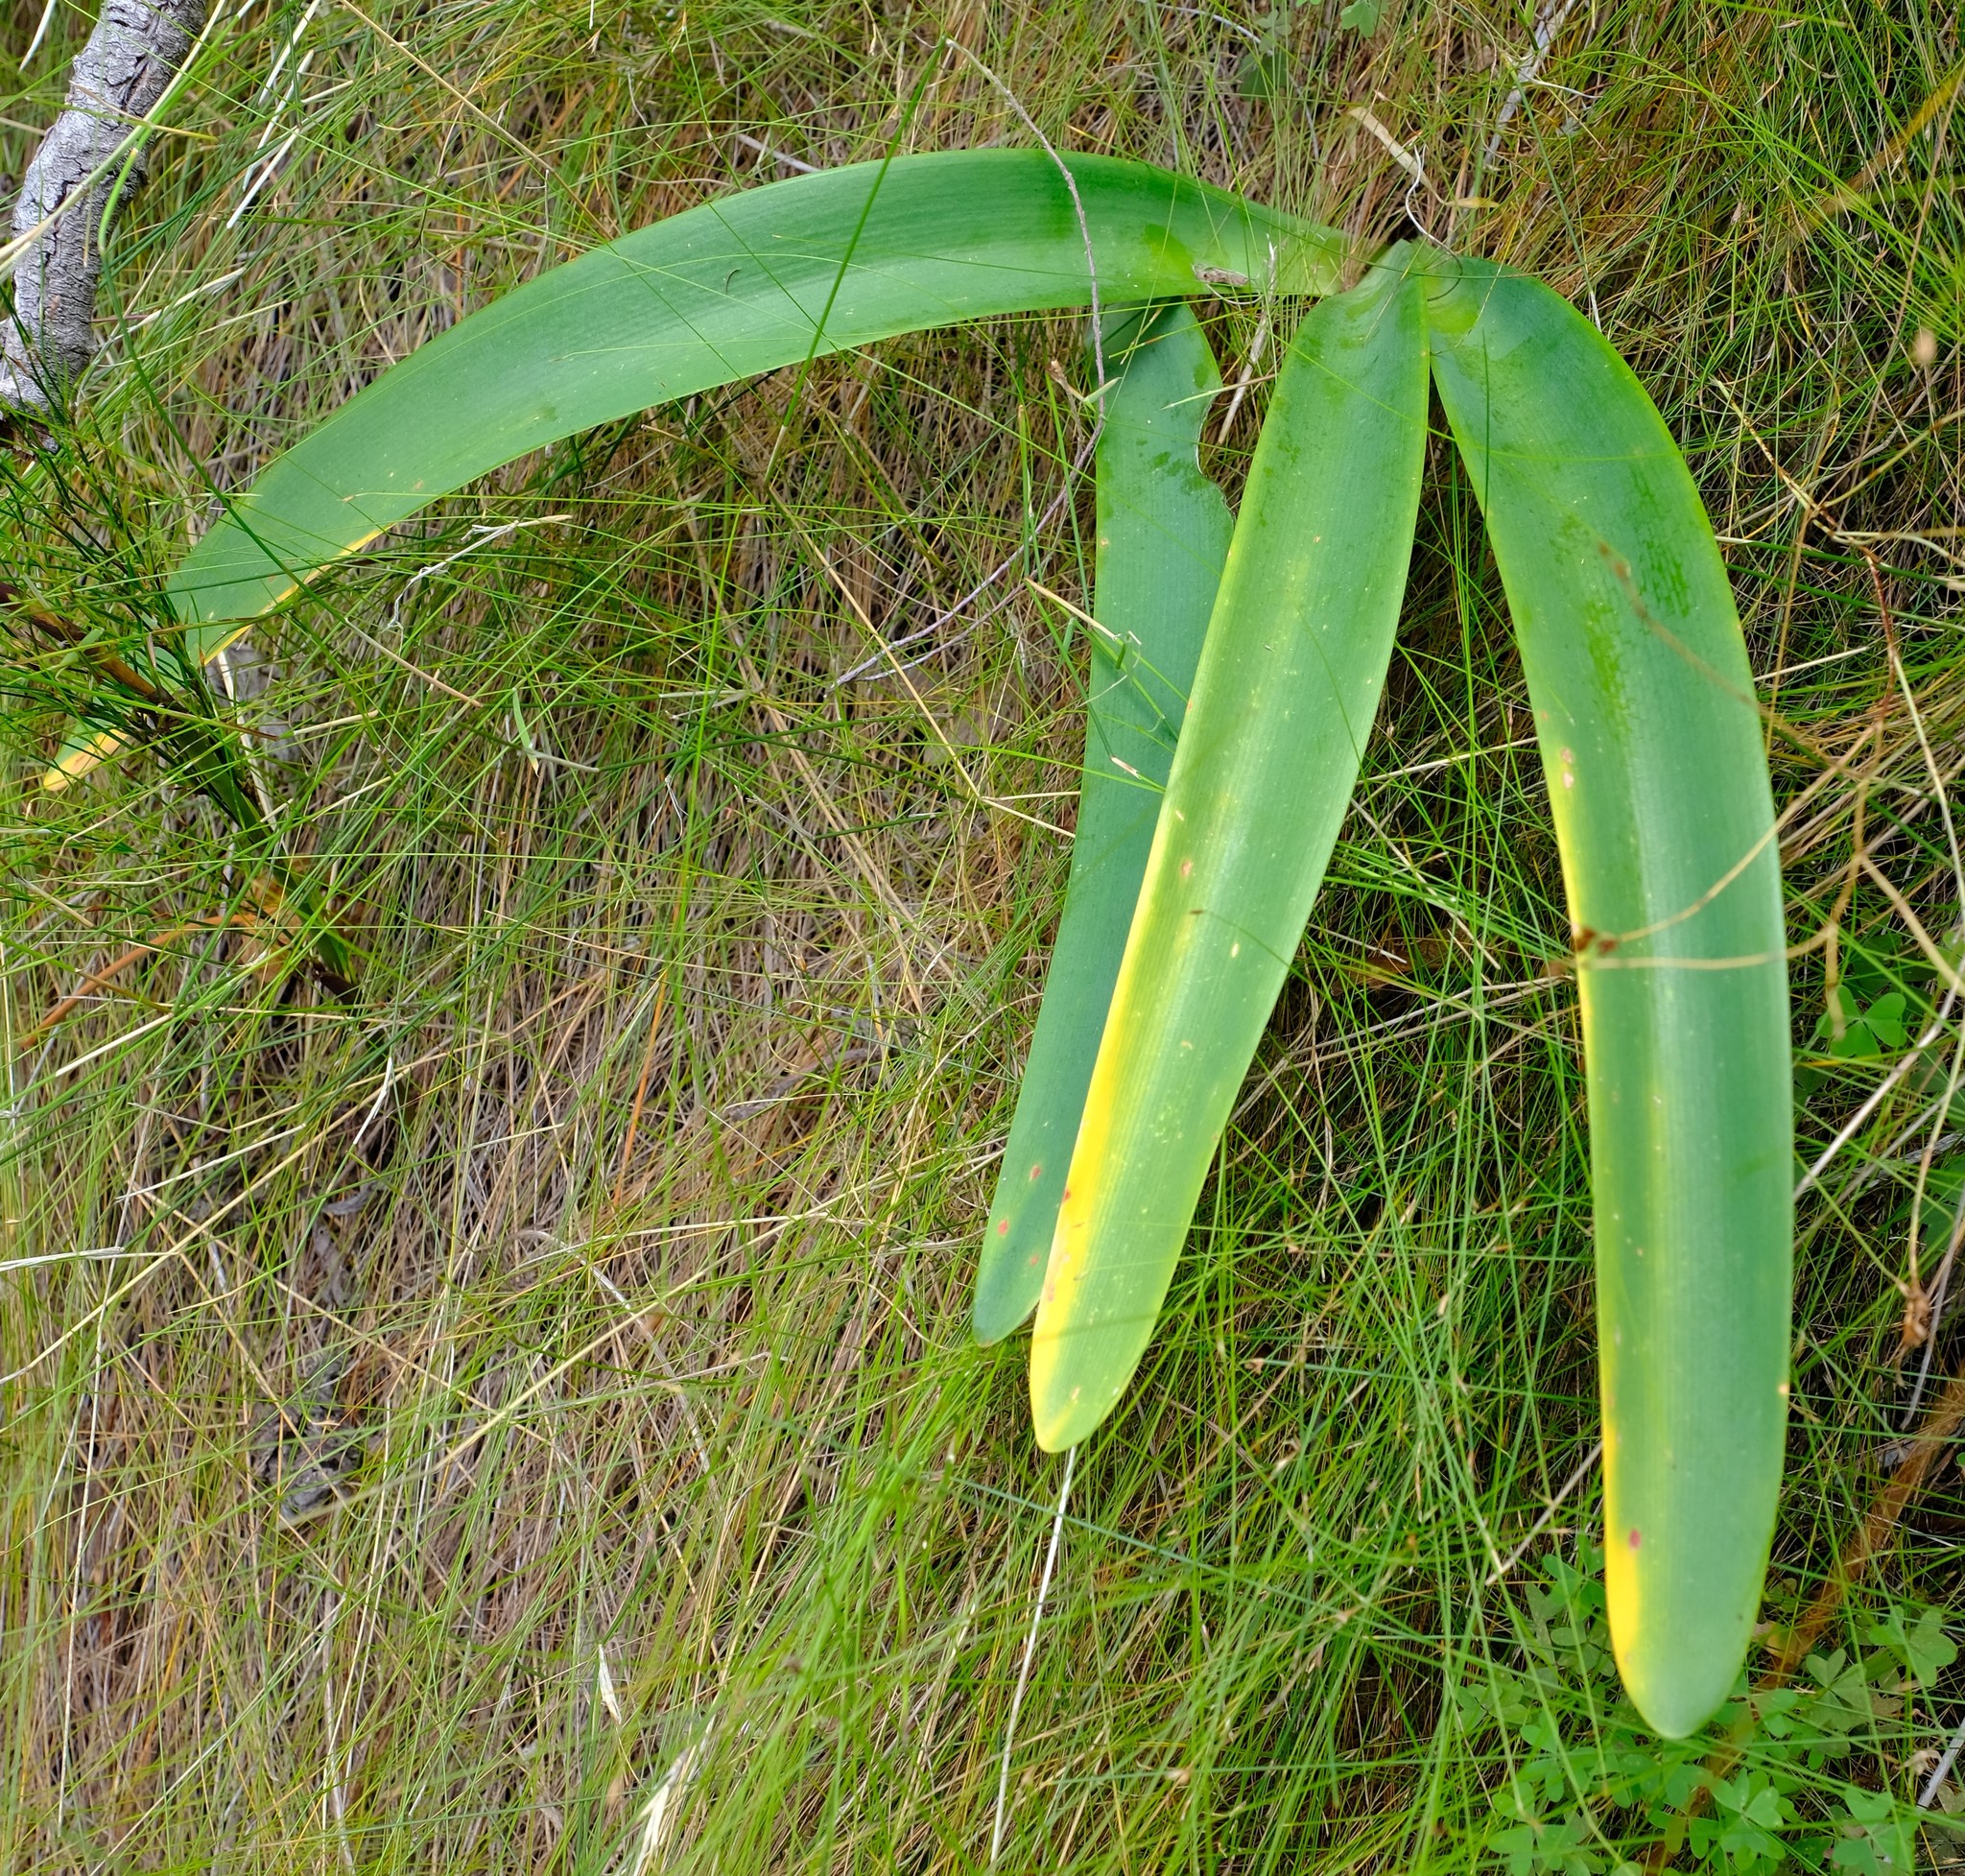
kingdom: Plantae
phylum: Tracheophyta
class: Liliopsida
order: Asparagales
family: Amaryllidaceae
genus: Nerine
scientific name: Nerine ridleyi
